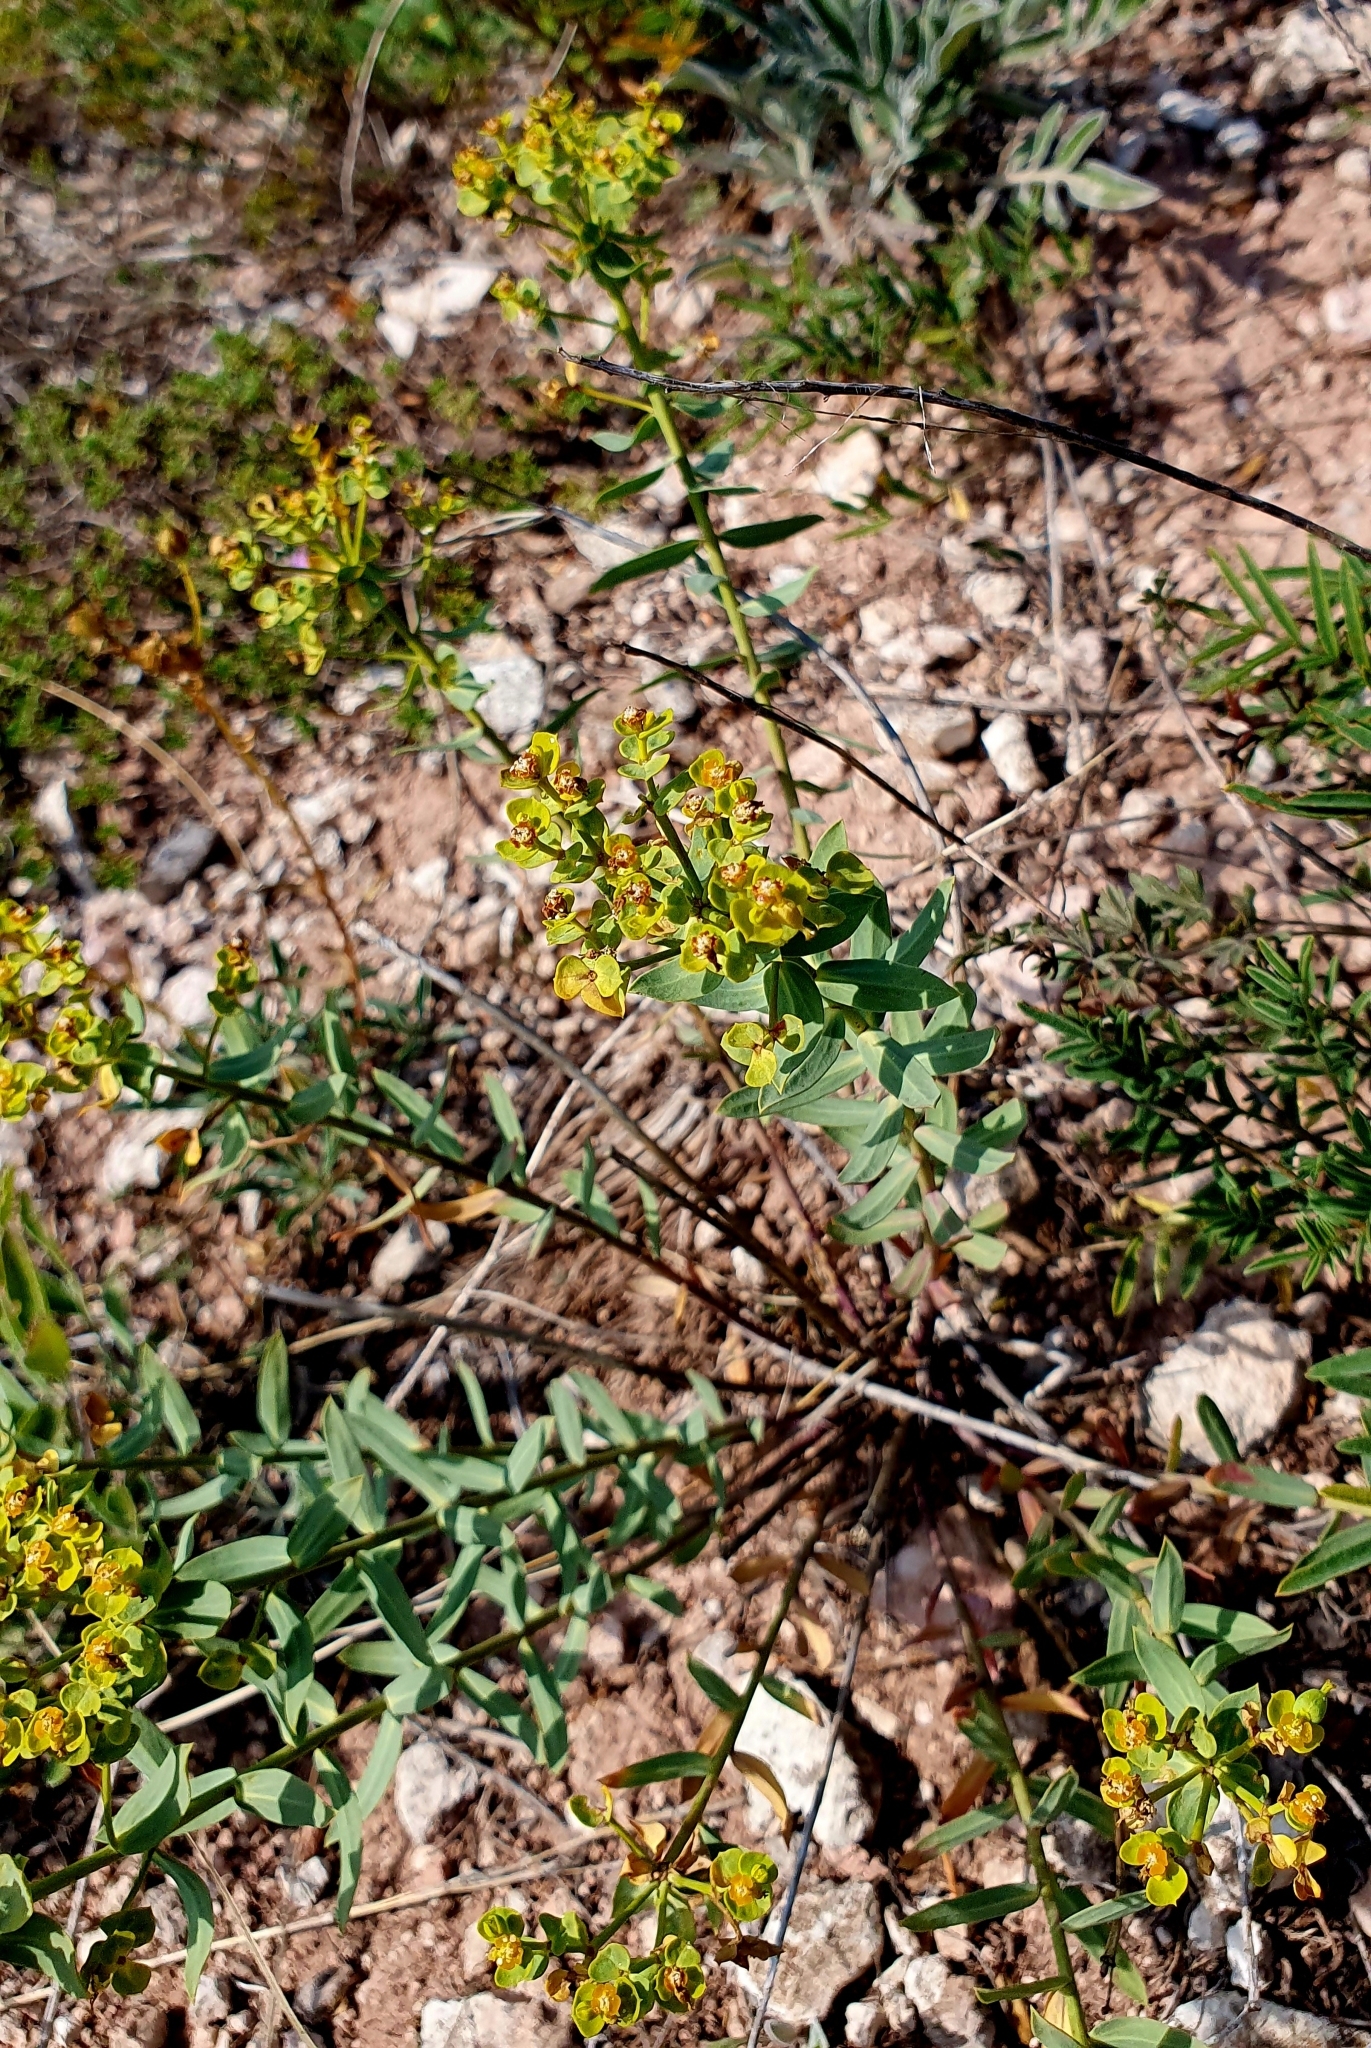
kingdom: Plantae
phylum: Tracheophyta
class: Magnoliopsida
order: Malpighiales
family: Euphorbiaceae
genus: Euphorbia
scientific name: Euphorbia seguieriana
